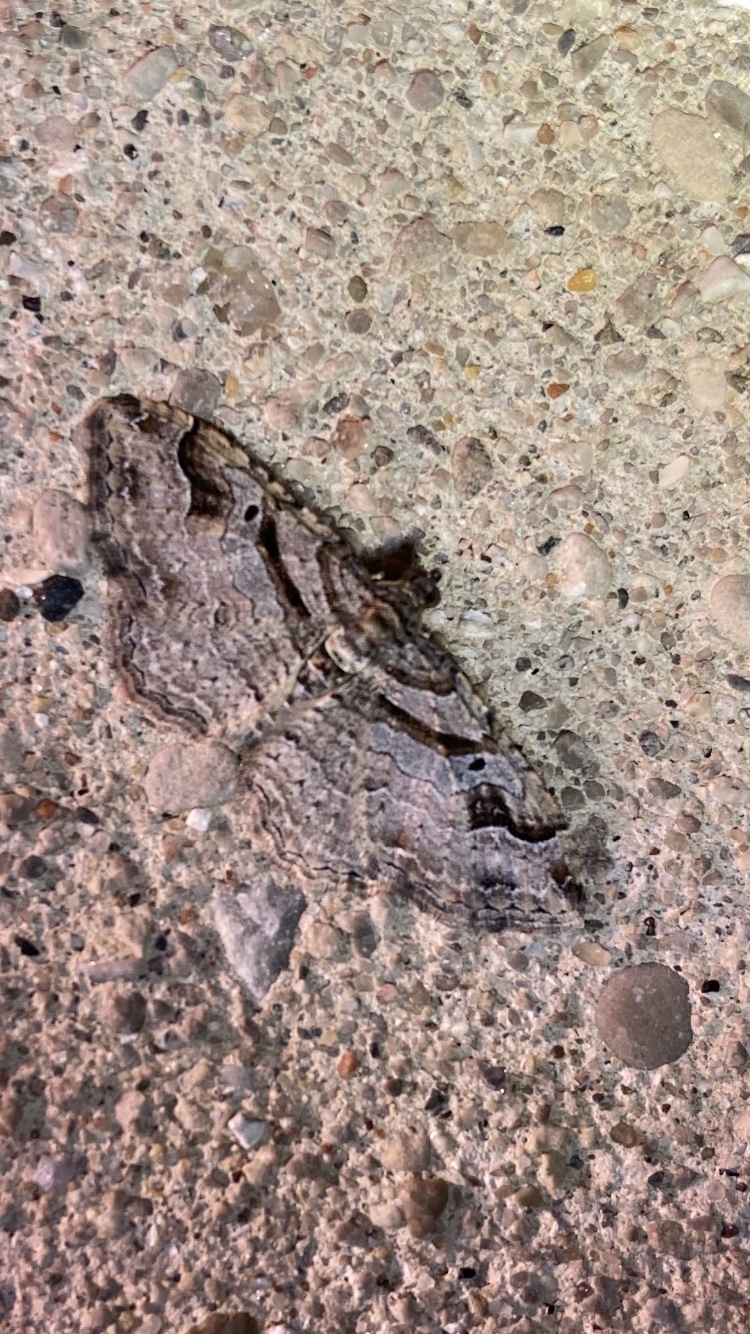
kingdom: Animalia
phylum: Arthropoda
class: Insecta
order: Lepidoptera
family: Geometridae
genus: Costaconvexa
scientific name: Costaconvexa centrostrigaria
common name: Bent-line carpet
